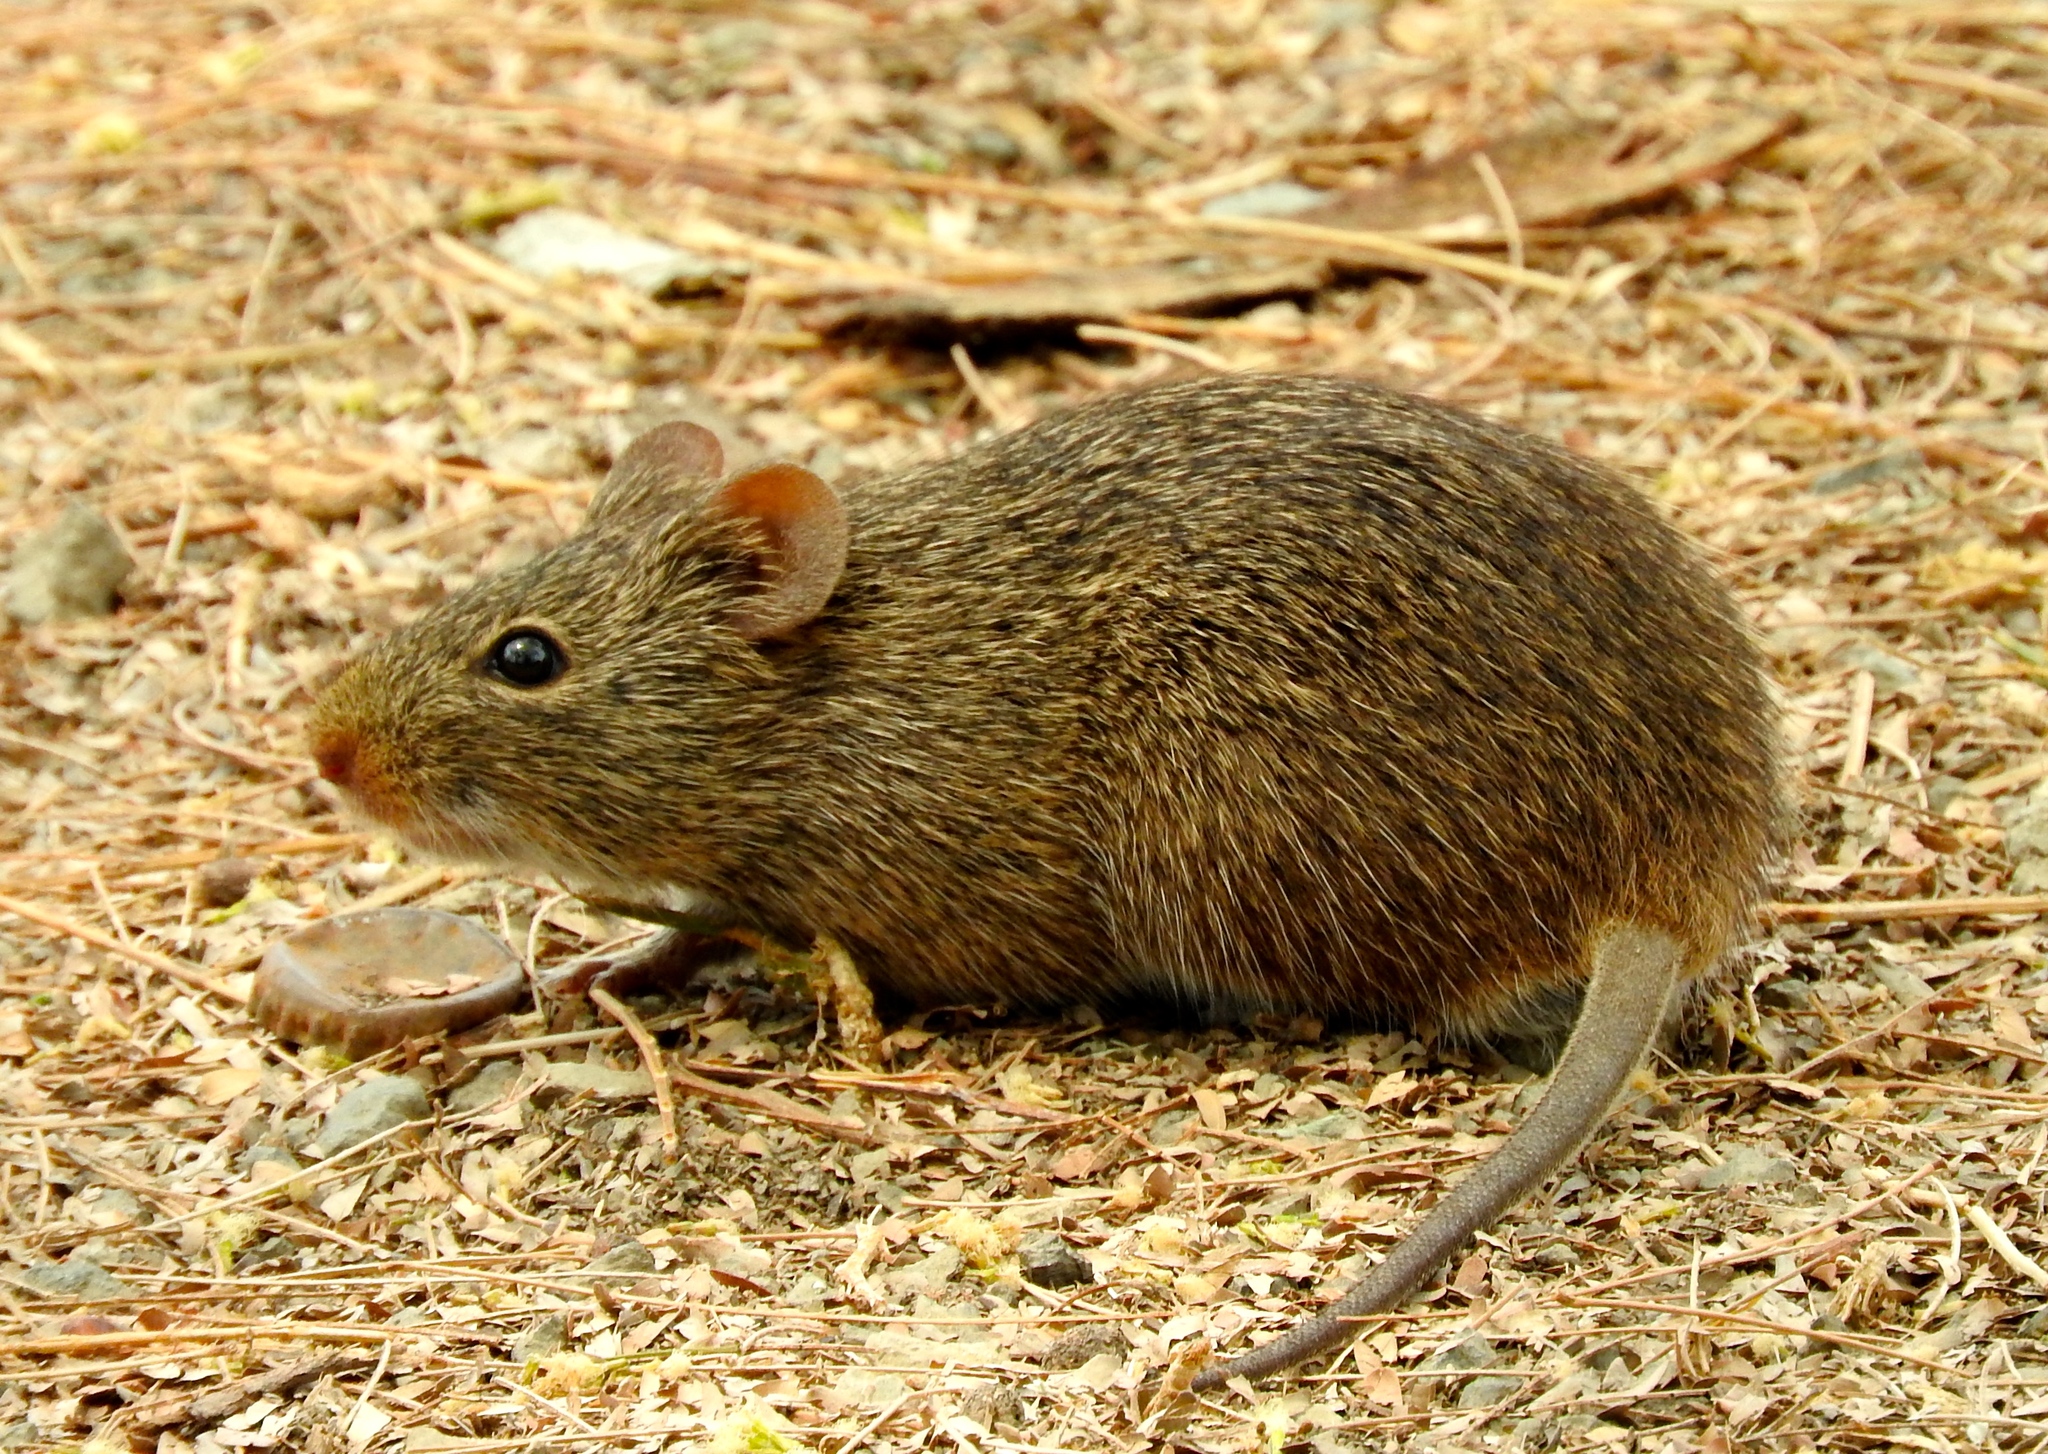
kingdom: Animalia
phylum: Chordata
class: Mammalia
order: Rodentia
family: Cricetidae
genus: Sigmodon
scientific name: Sigmodon arizonae
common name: Arizona cotton rat
